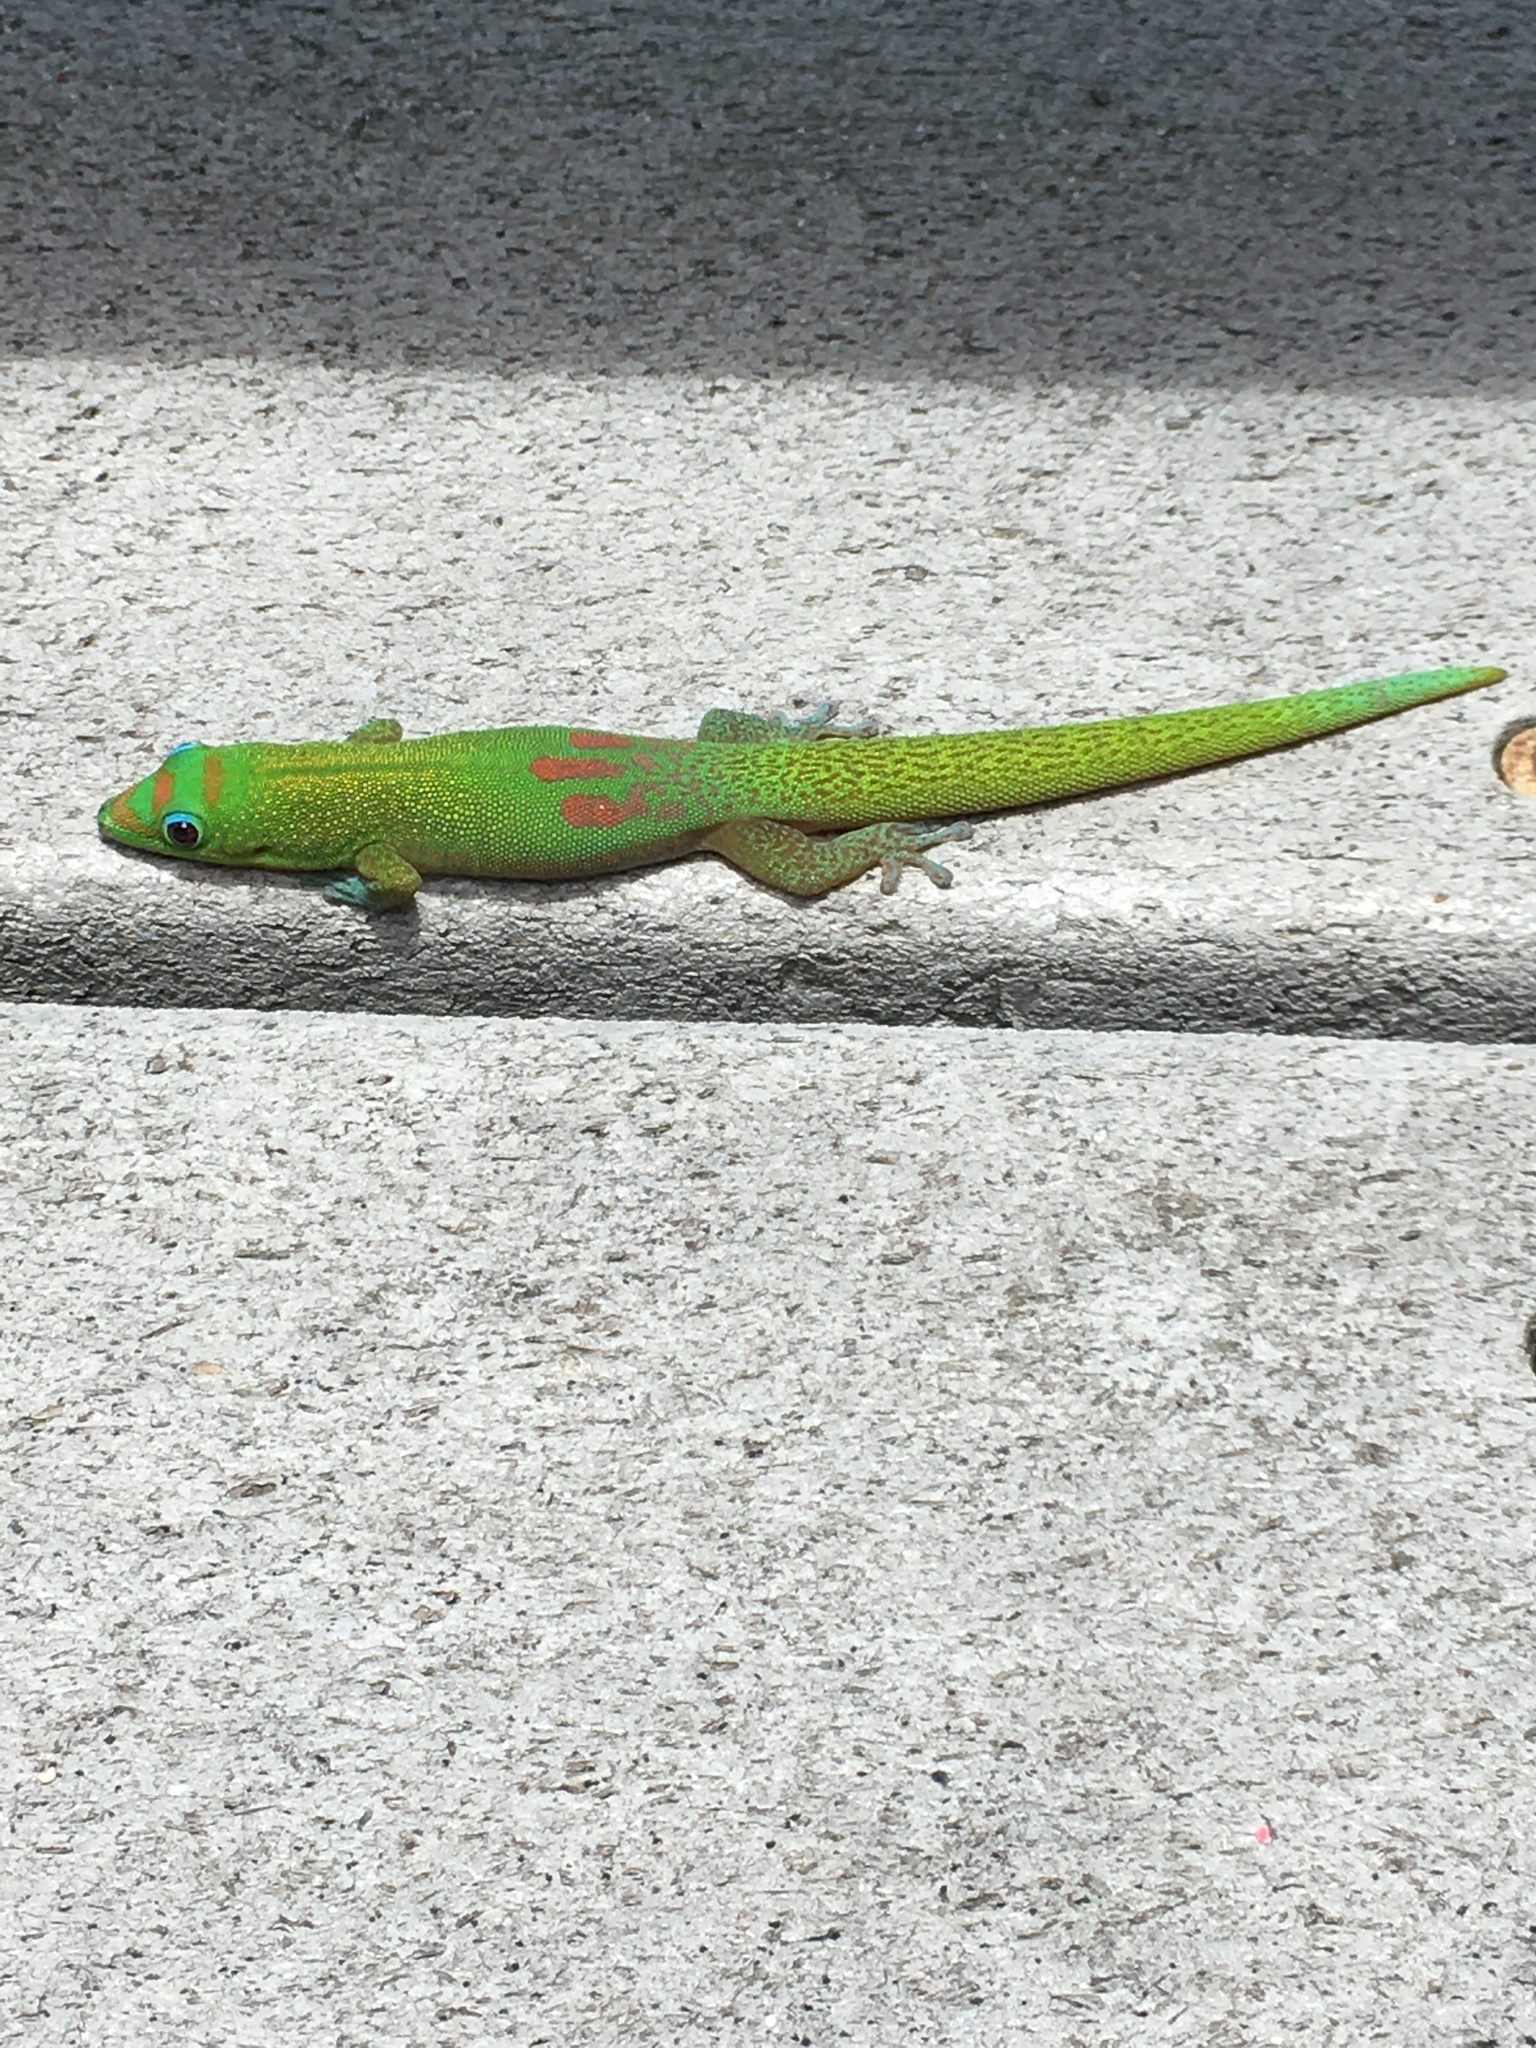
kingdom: Animalia
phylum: Chordata
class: Squamata
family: Gekkonidae
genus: Phelsuma
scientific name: Phelsuma laticauda
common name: Gold dust day gecko
